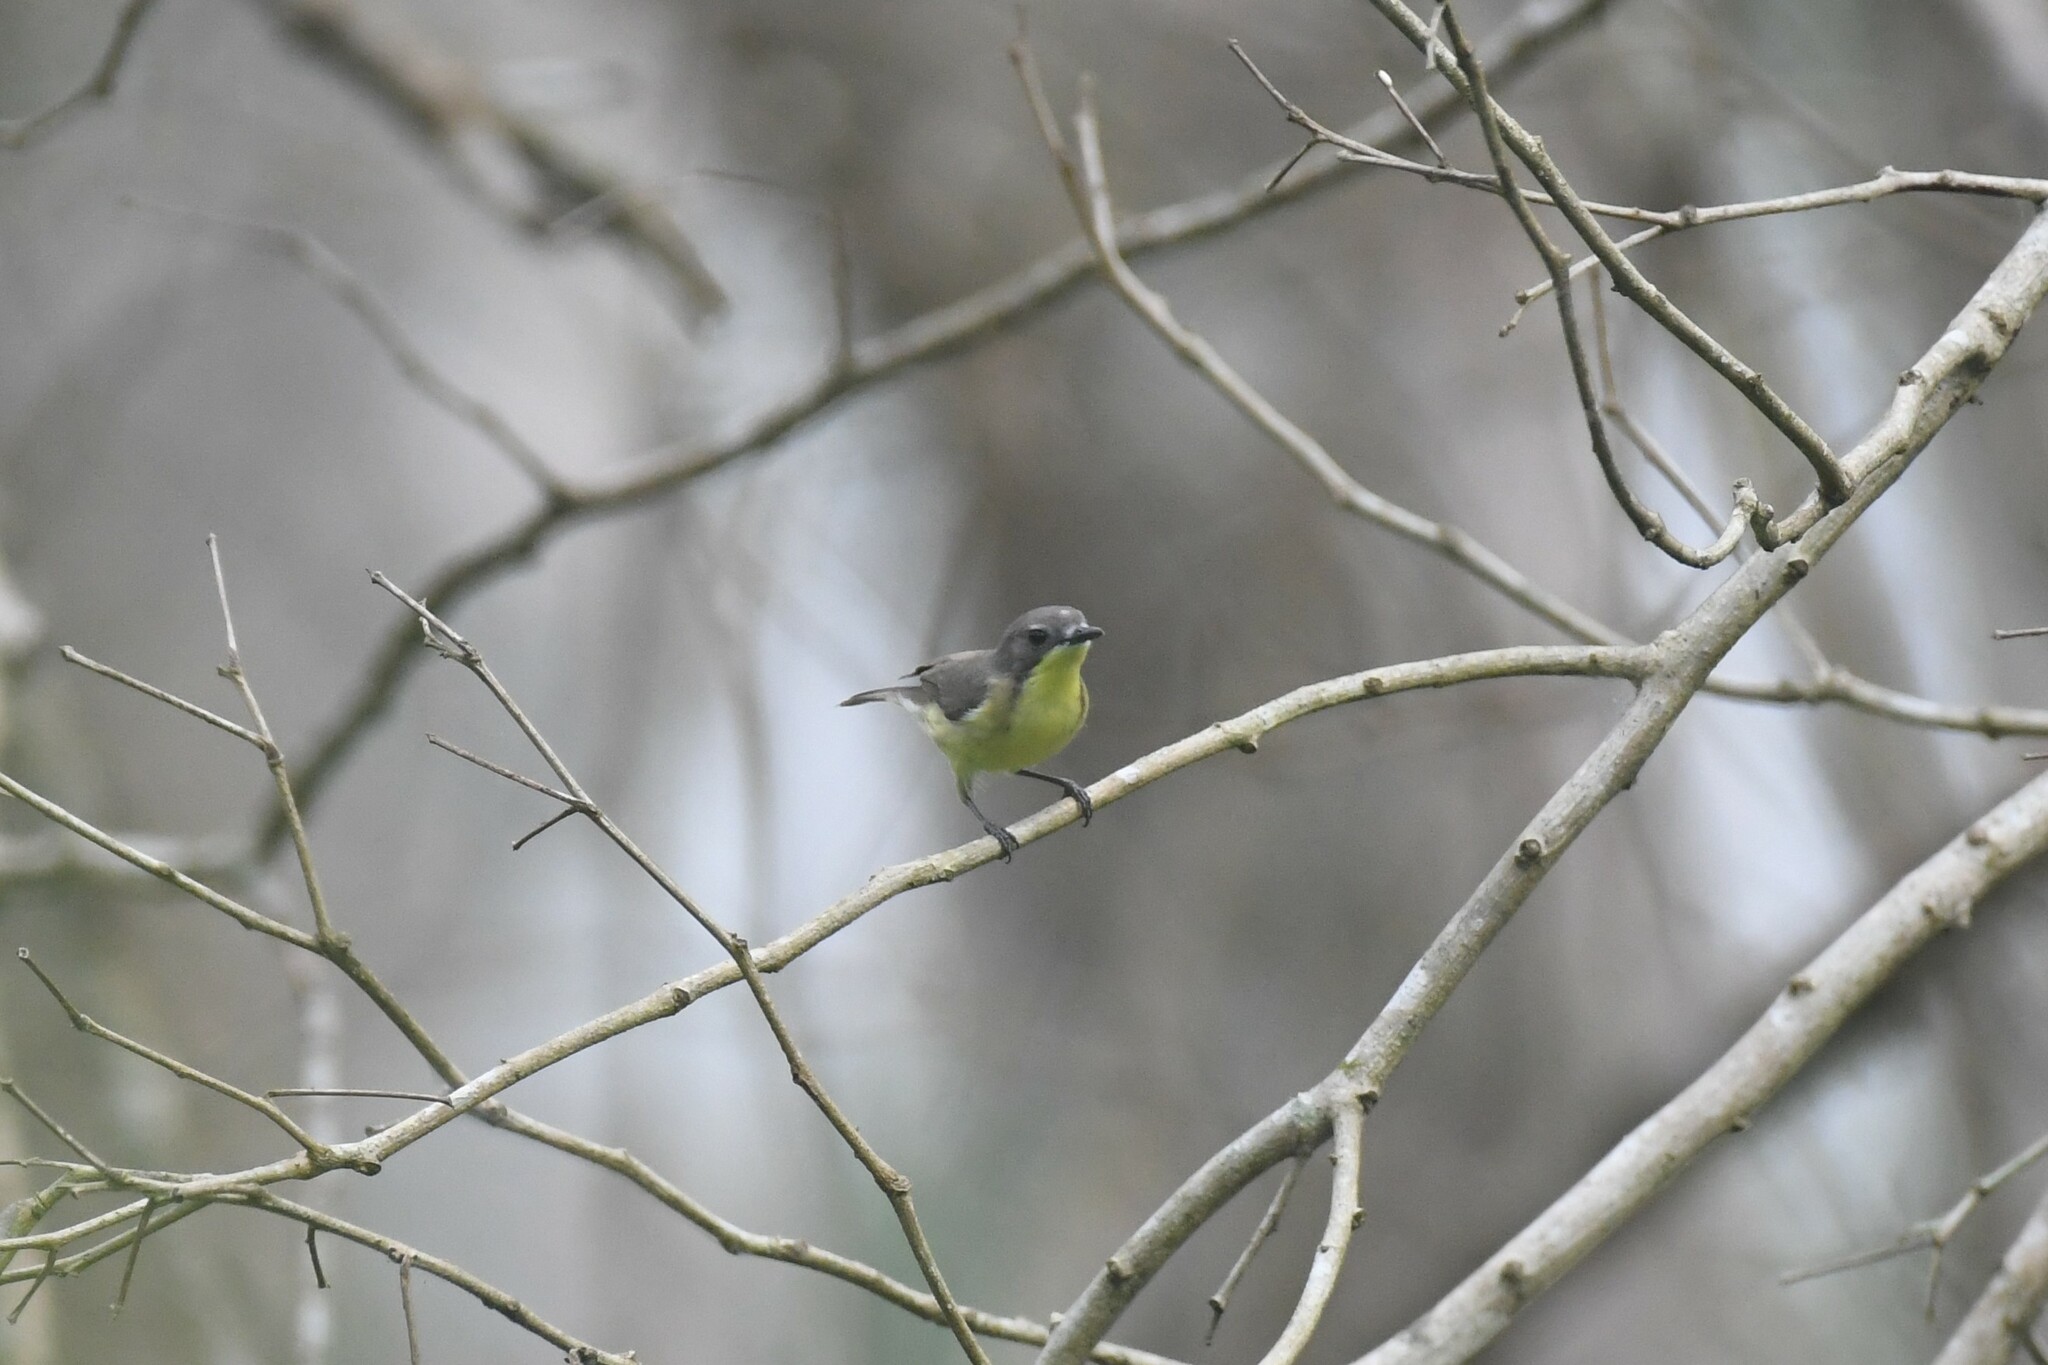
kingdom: Animalia
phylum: Chordata
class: Aves
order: Passeriformes
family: Acanthizidae
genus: Gerygone
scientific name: Gerygone sulphurea
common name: Golden-bellied gerygone
